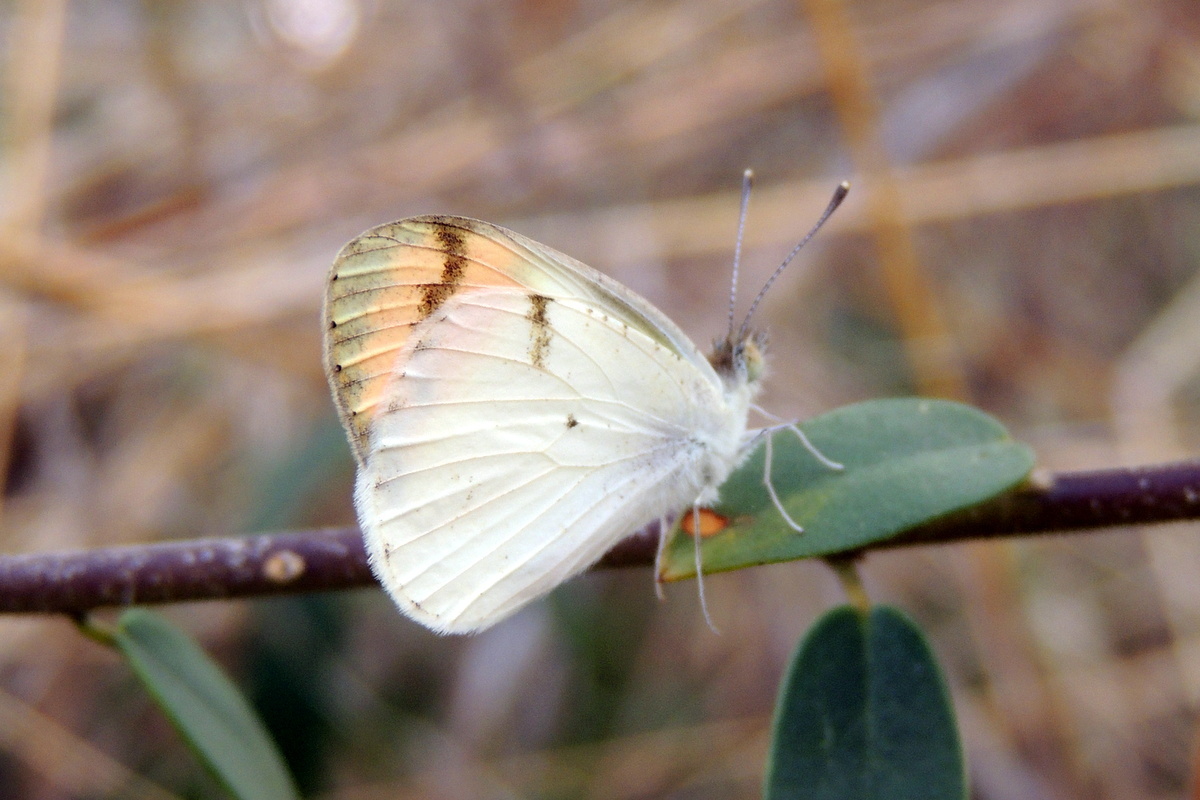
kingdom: Animalia
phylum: Arthropoda
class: Insecta
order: Lepidoptera
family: Pieridae
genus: Colotis
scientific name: Colotis aurora
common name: Plain orange-tip
